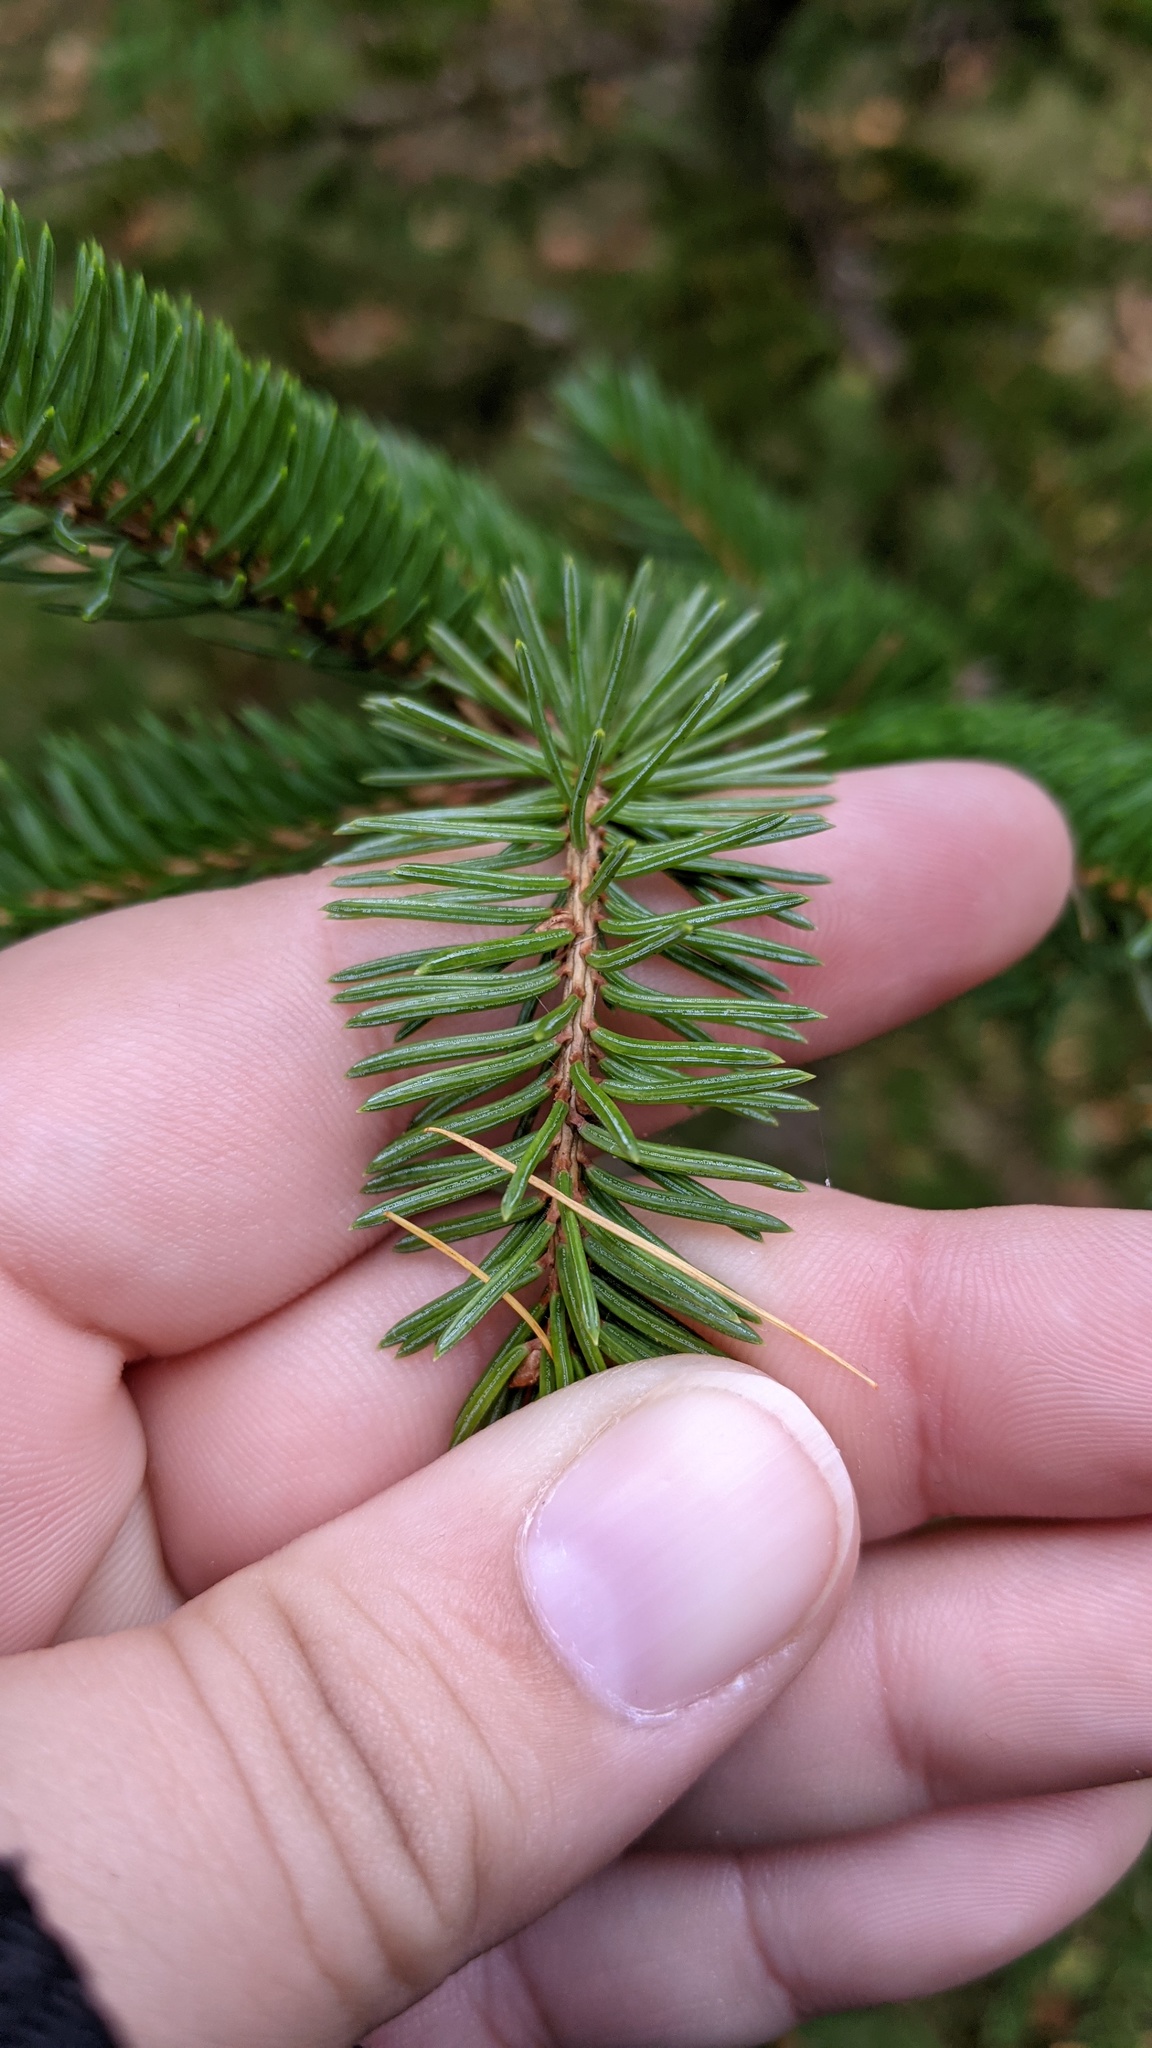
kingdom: Plantae
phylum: Tracheophyta
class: Pinopsida
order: Pinales
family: Pinaceae
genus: Picea
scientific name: Picea glauca
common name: White spruce
